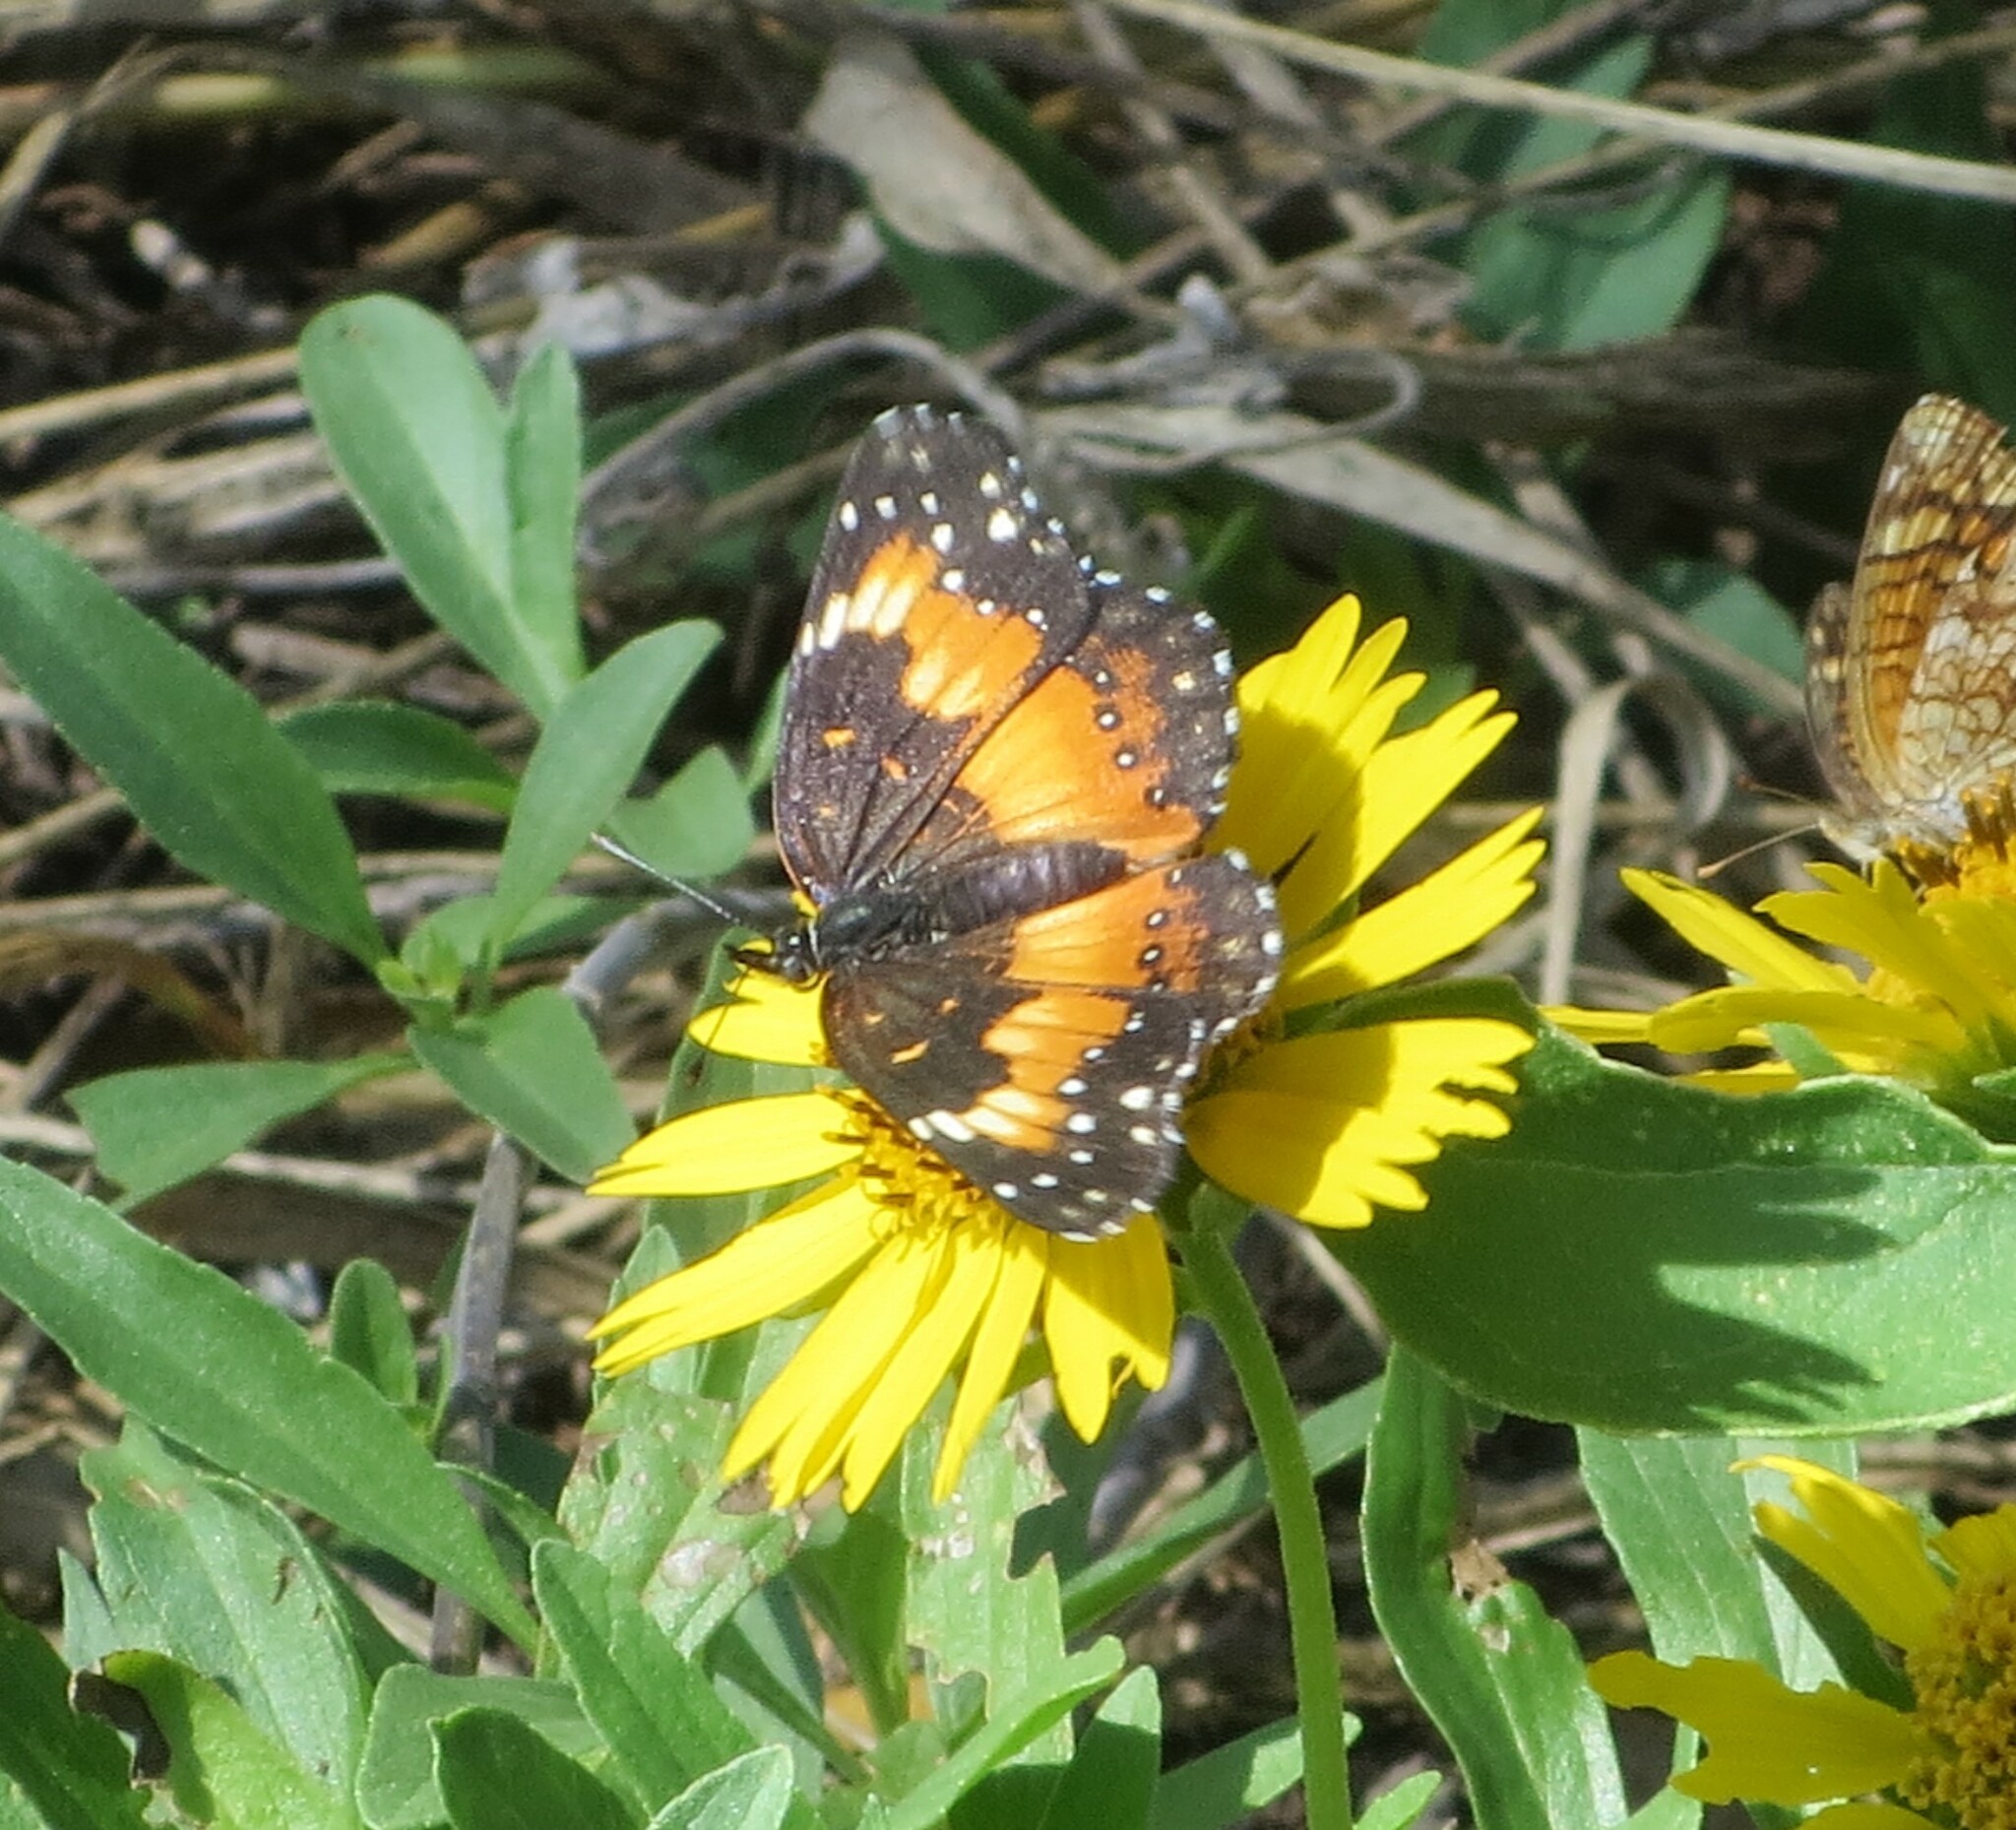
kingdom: Animalia
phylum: Arthropoda
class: Insecta
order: Lepidoptera
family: Nymphalidae
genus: Chlosyne
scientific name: Chlosyne lacinia
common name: Bordered patch
